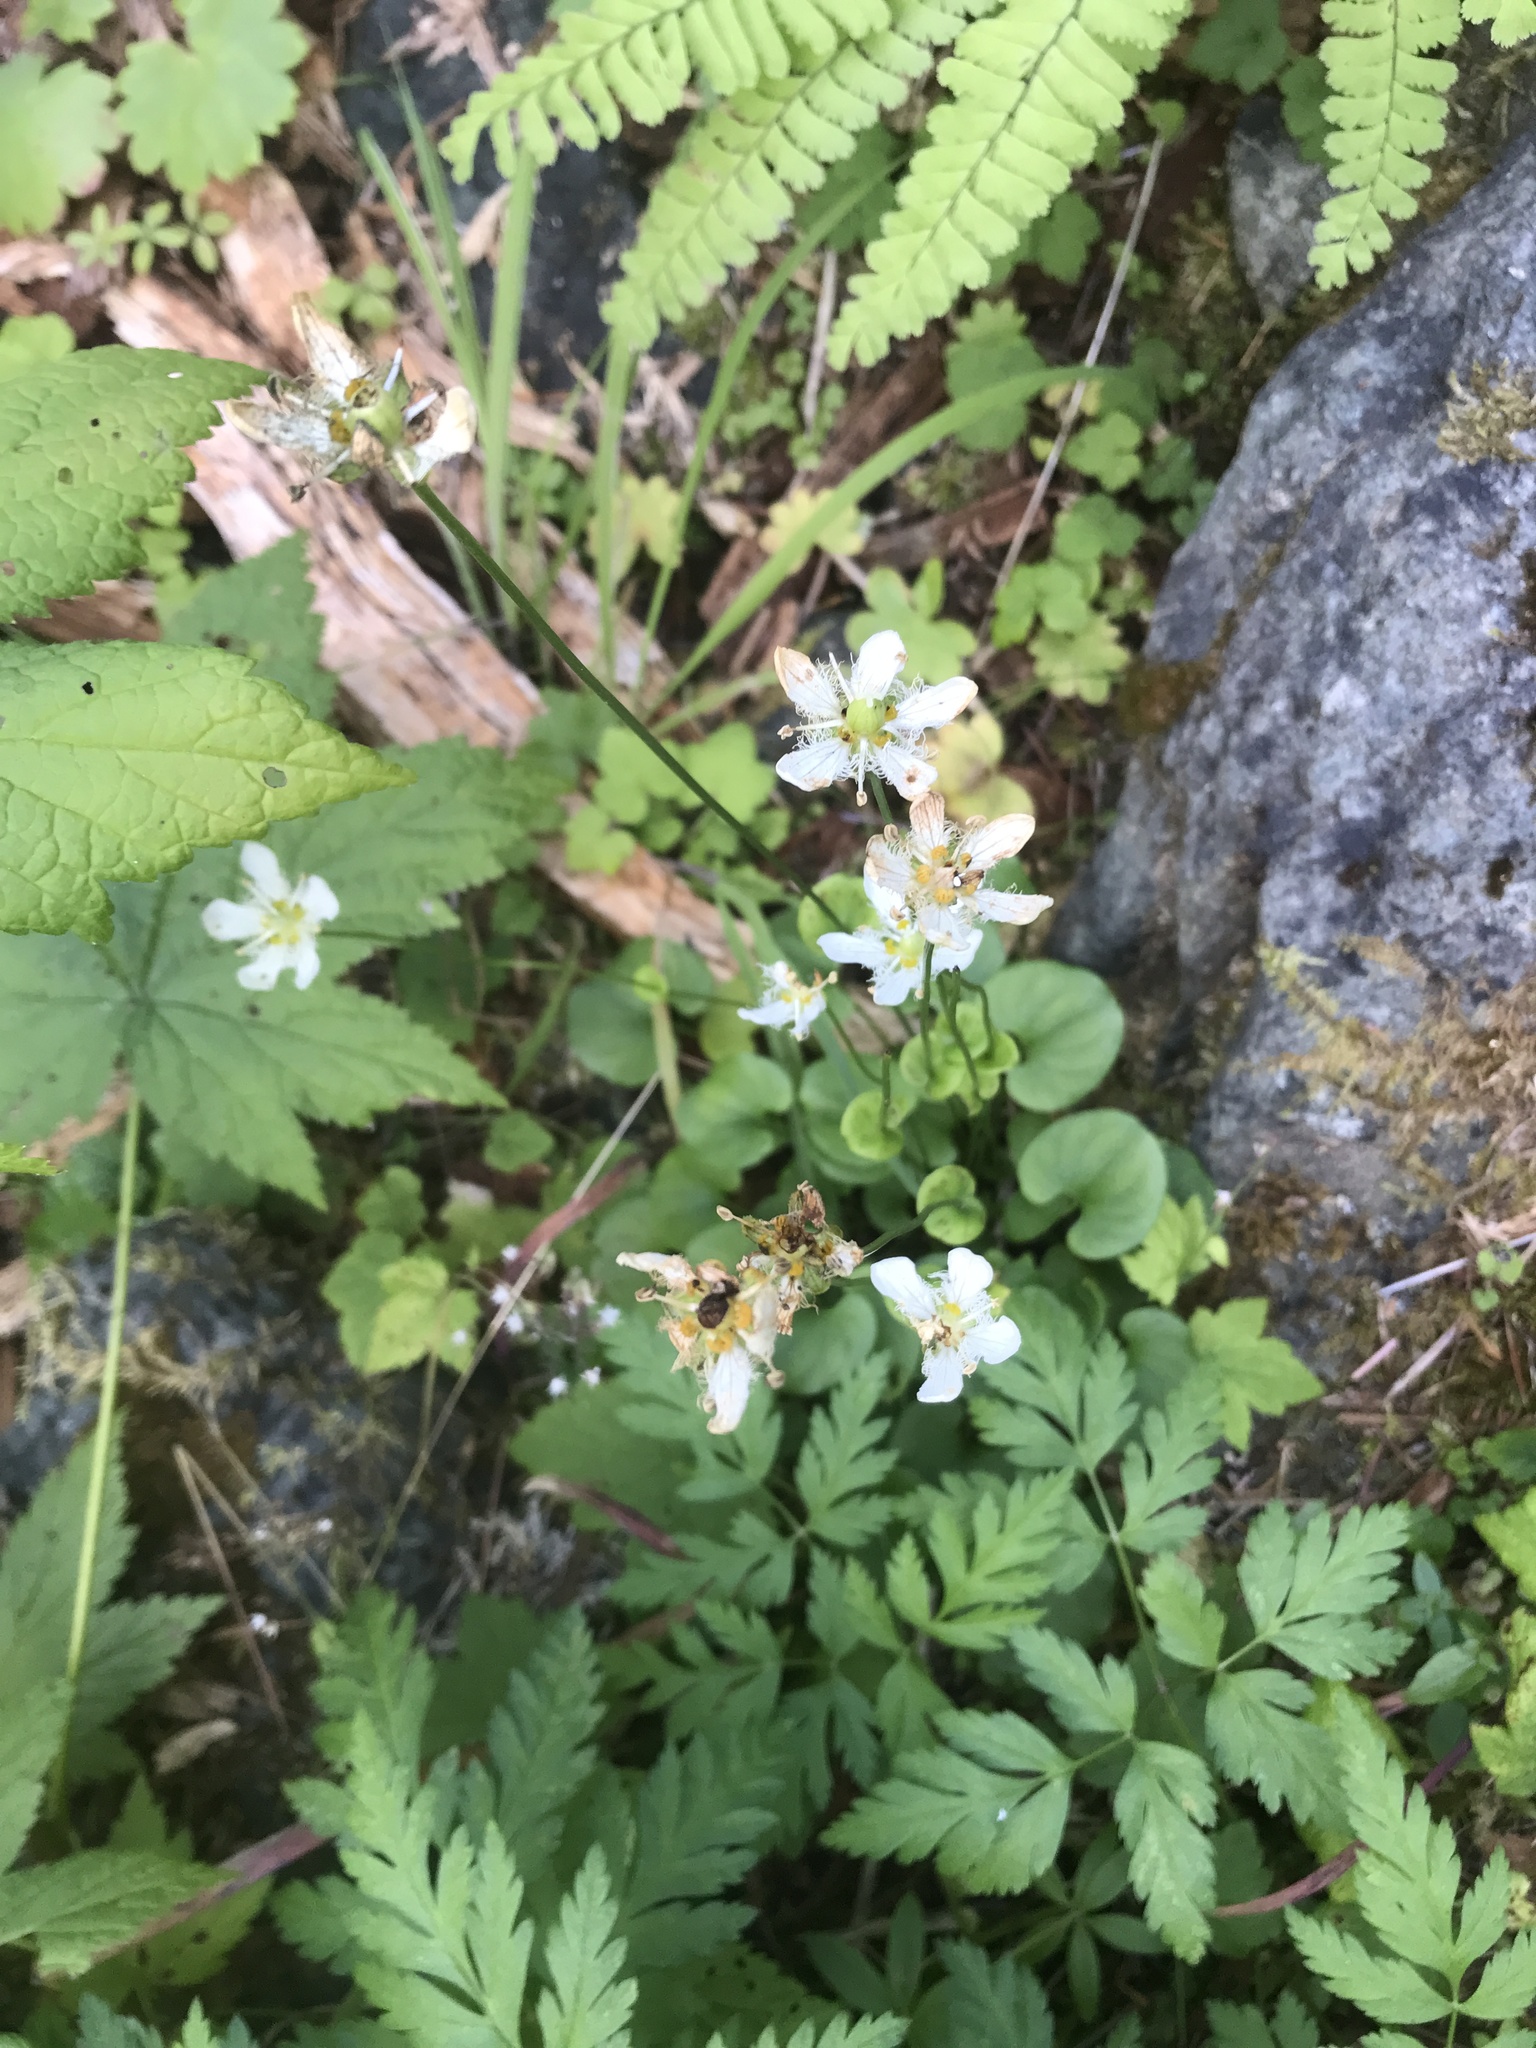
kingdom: Plantae
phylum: Tracheophyta
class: Magnoliopsida
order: Celastrales
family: Parnassiaceae
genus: Parnassia
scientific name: Parnassia fimbriata
